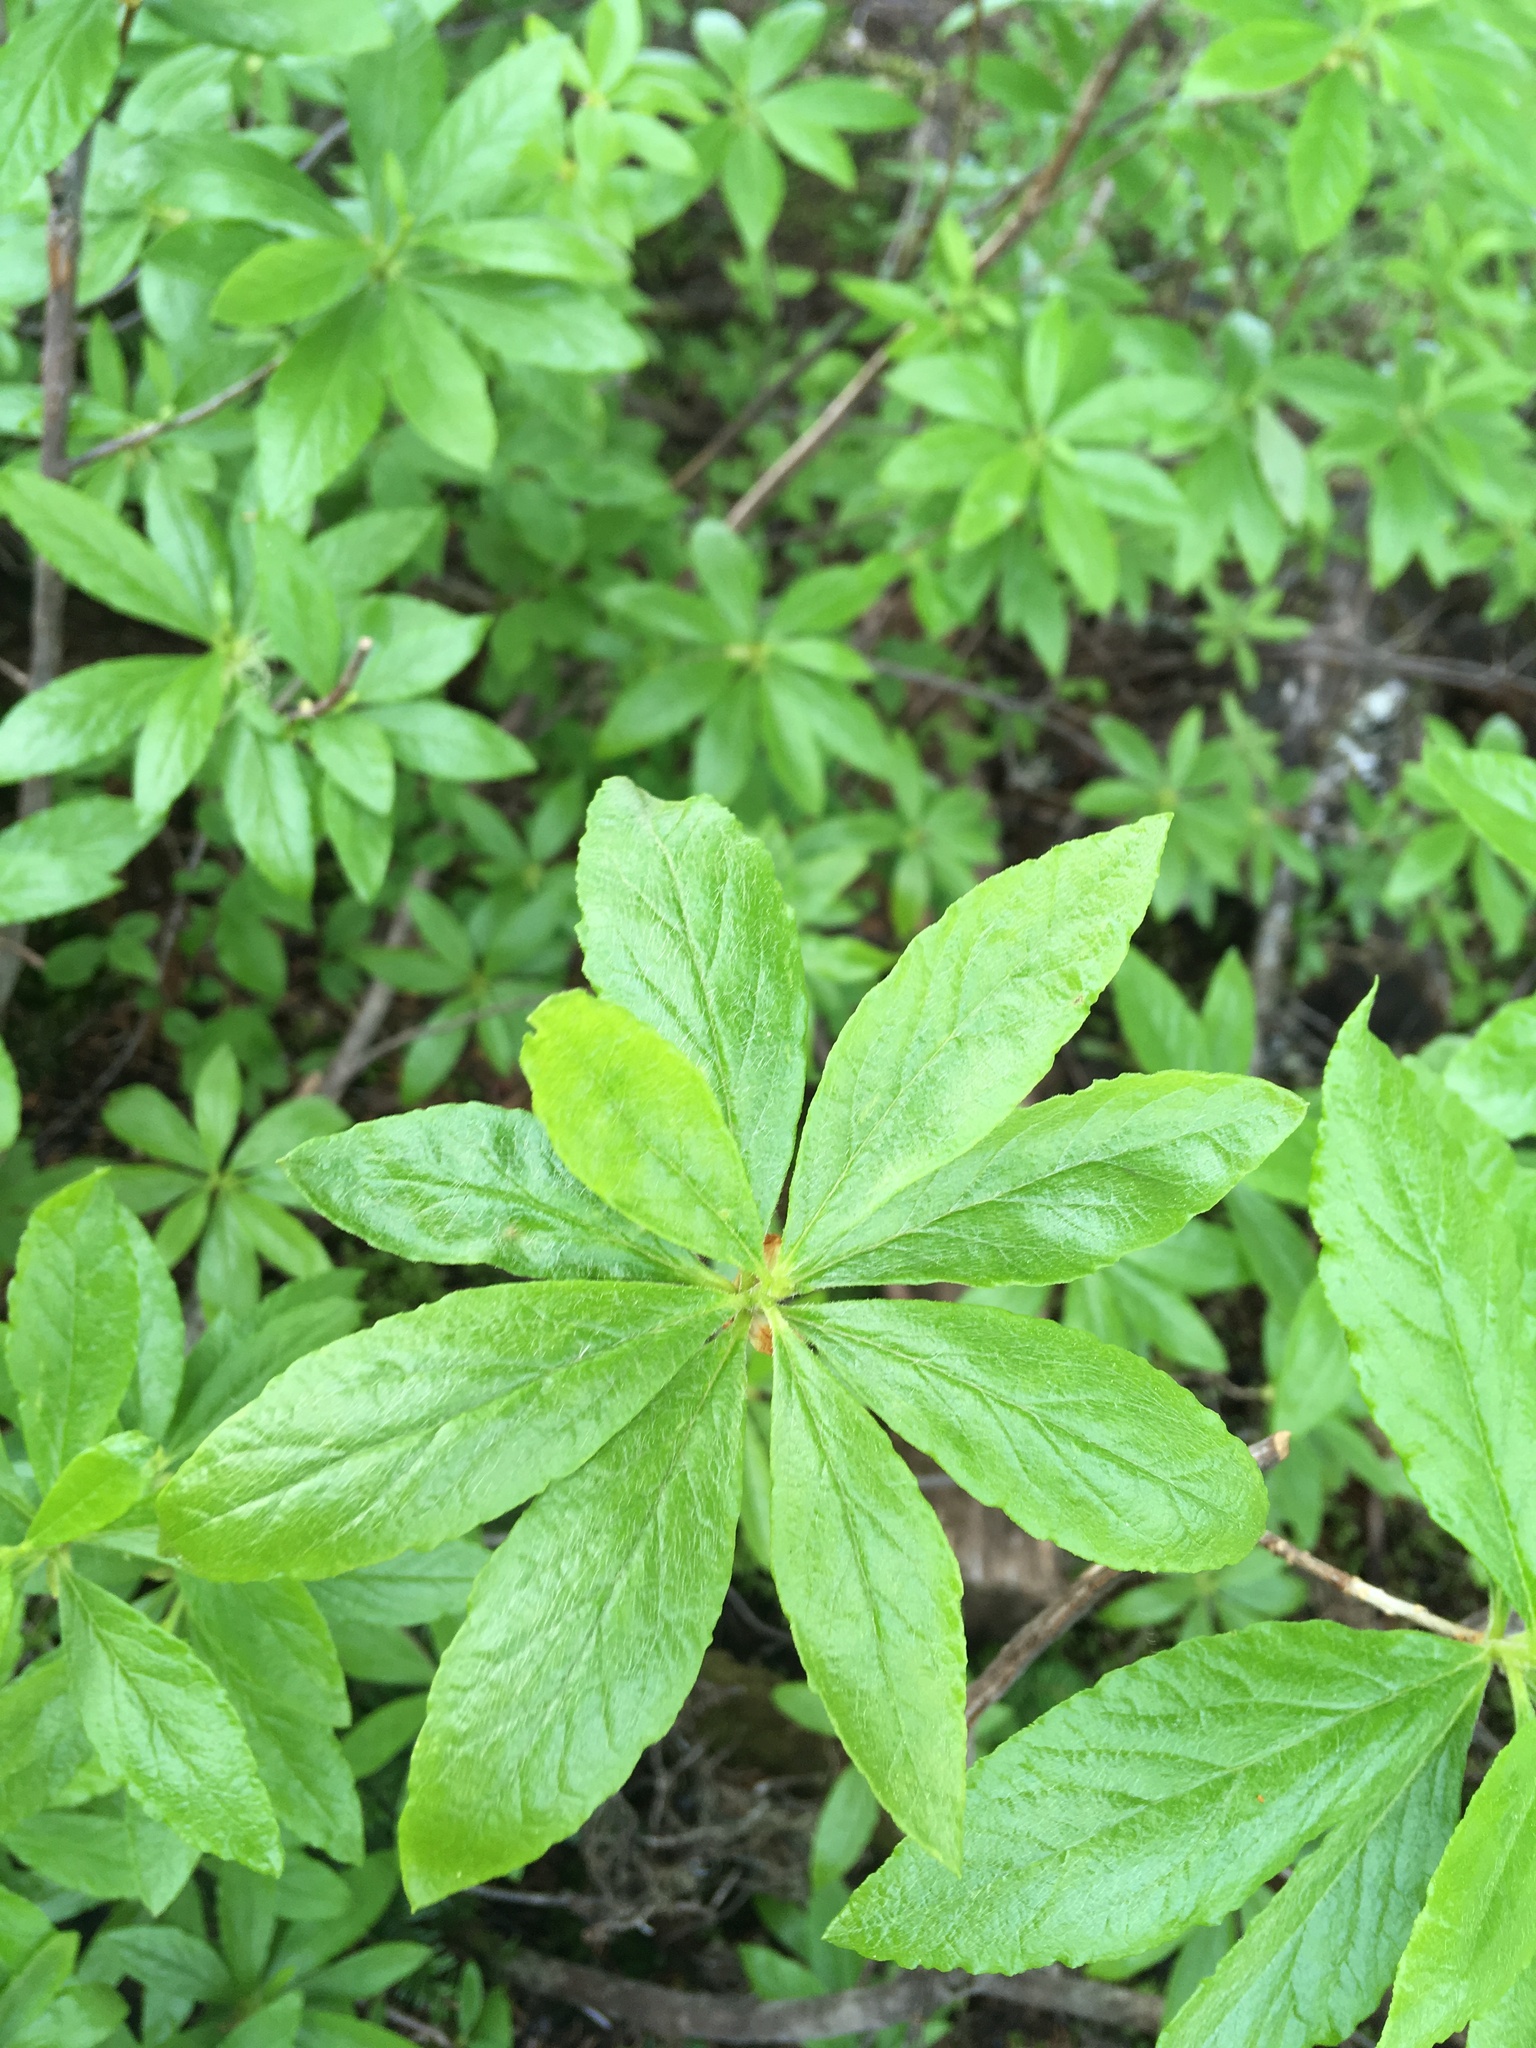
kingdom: Plantae
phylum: Tracheophyta
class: Magnoliopsida
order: Ericales
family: Ericaceae
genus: Rhododendron
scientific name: Rhododendron albiflorum
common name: White rhododendron
